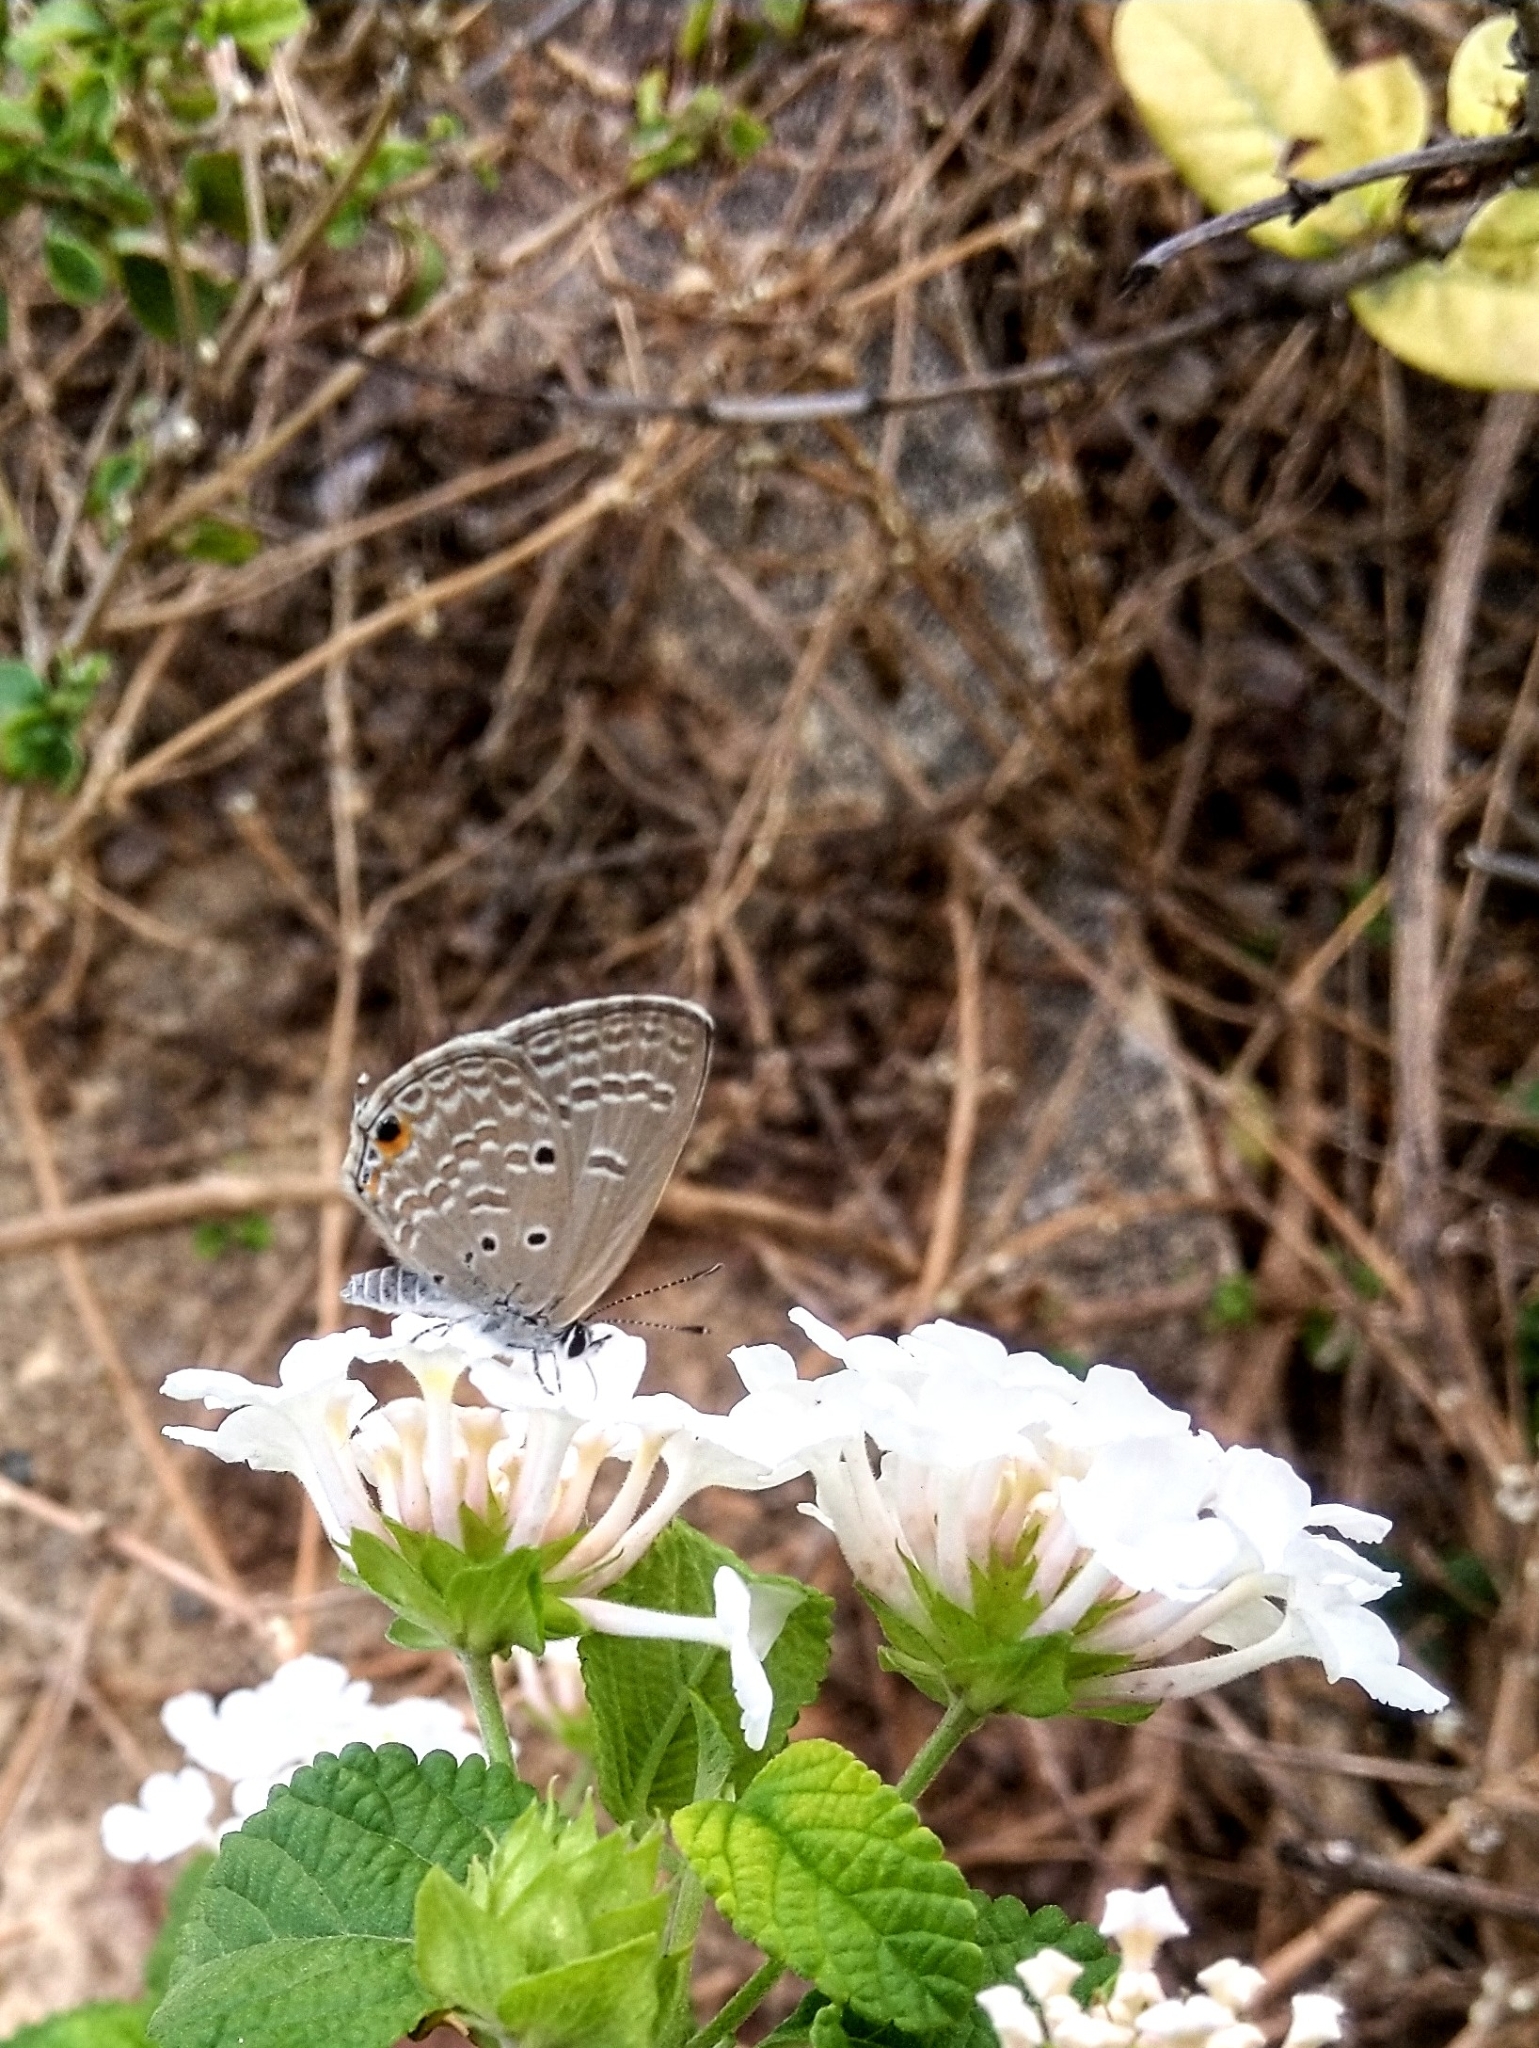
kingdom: Animalia
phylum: Arthropoda
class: Insecta
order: Lepidoptera
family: Lycaenidae
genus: Luthrodes
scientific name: Luthrodes pandava
